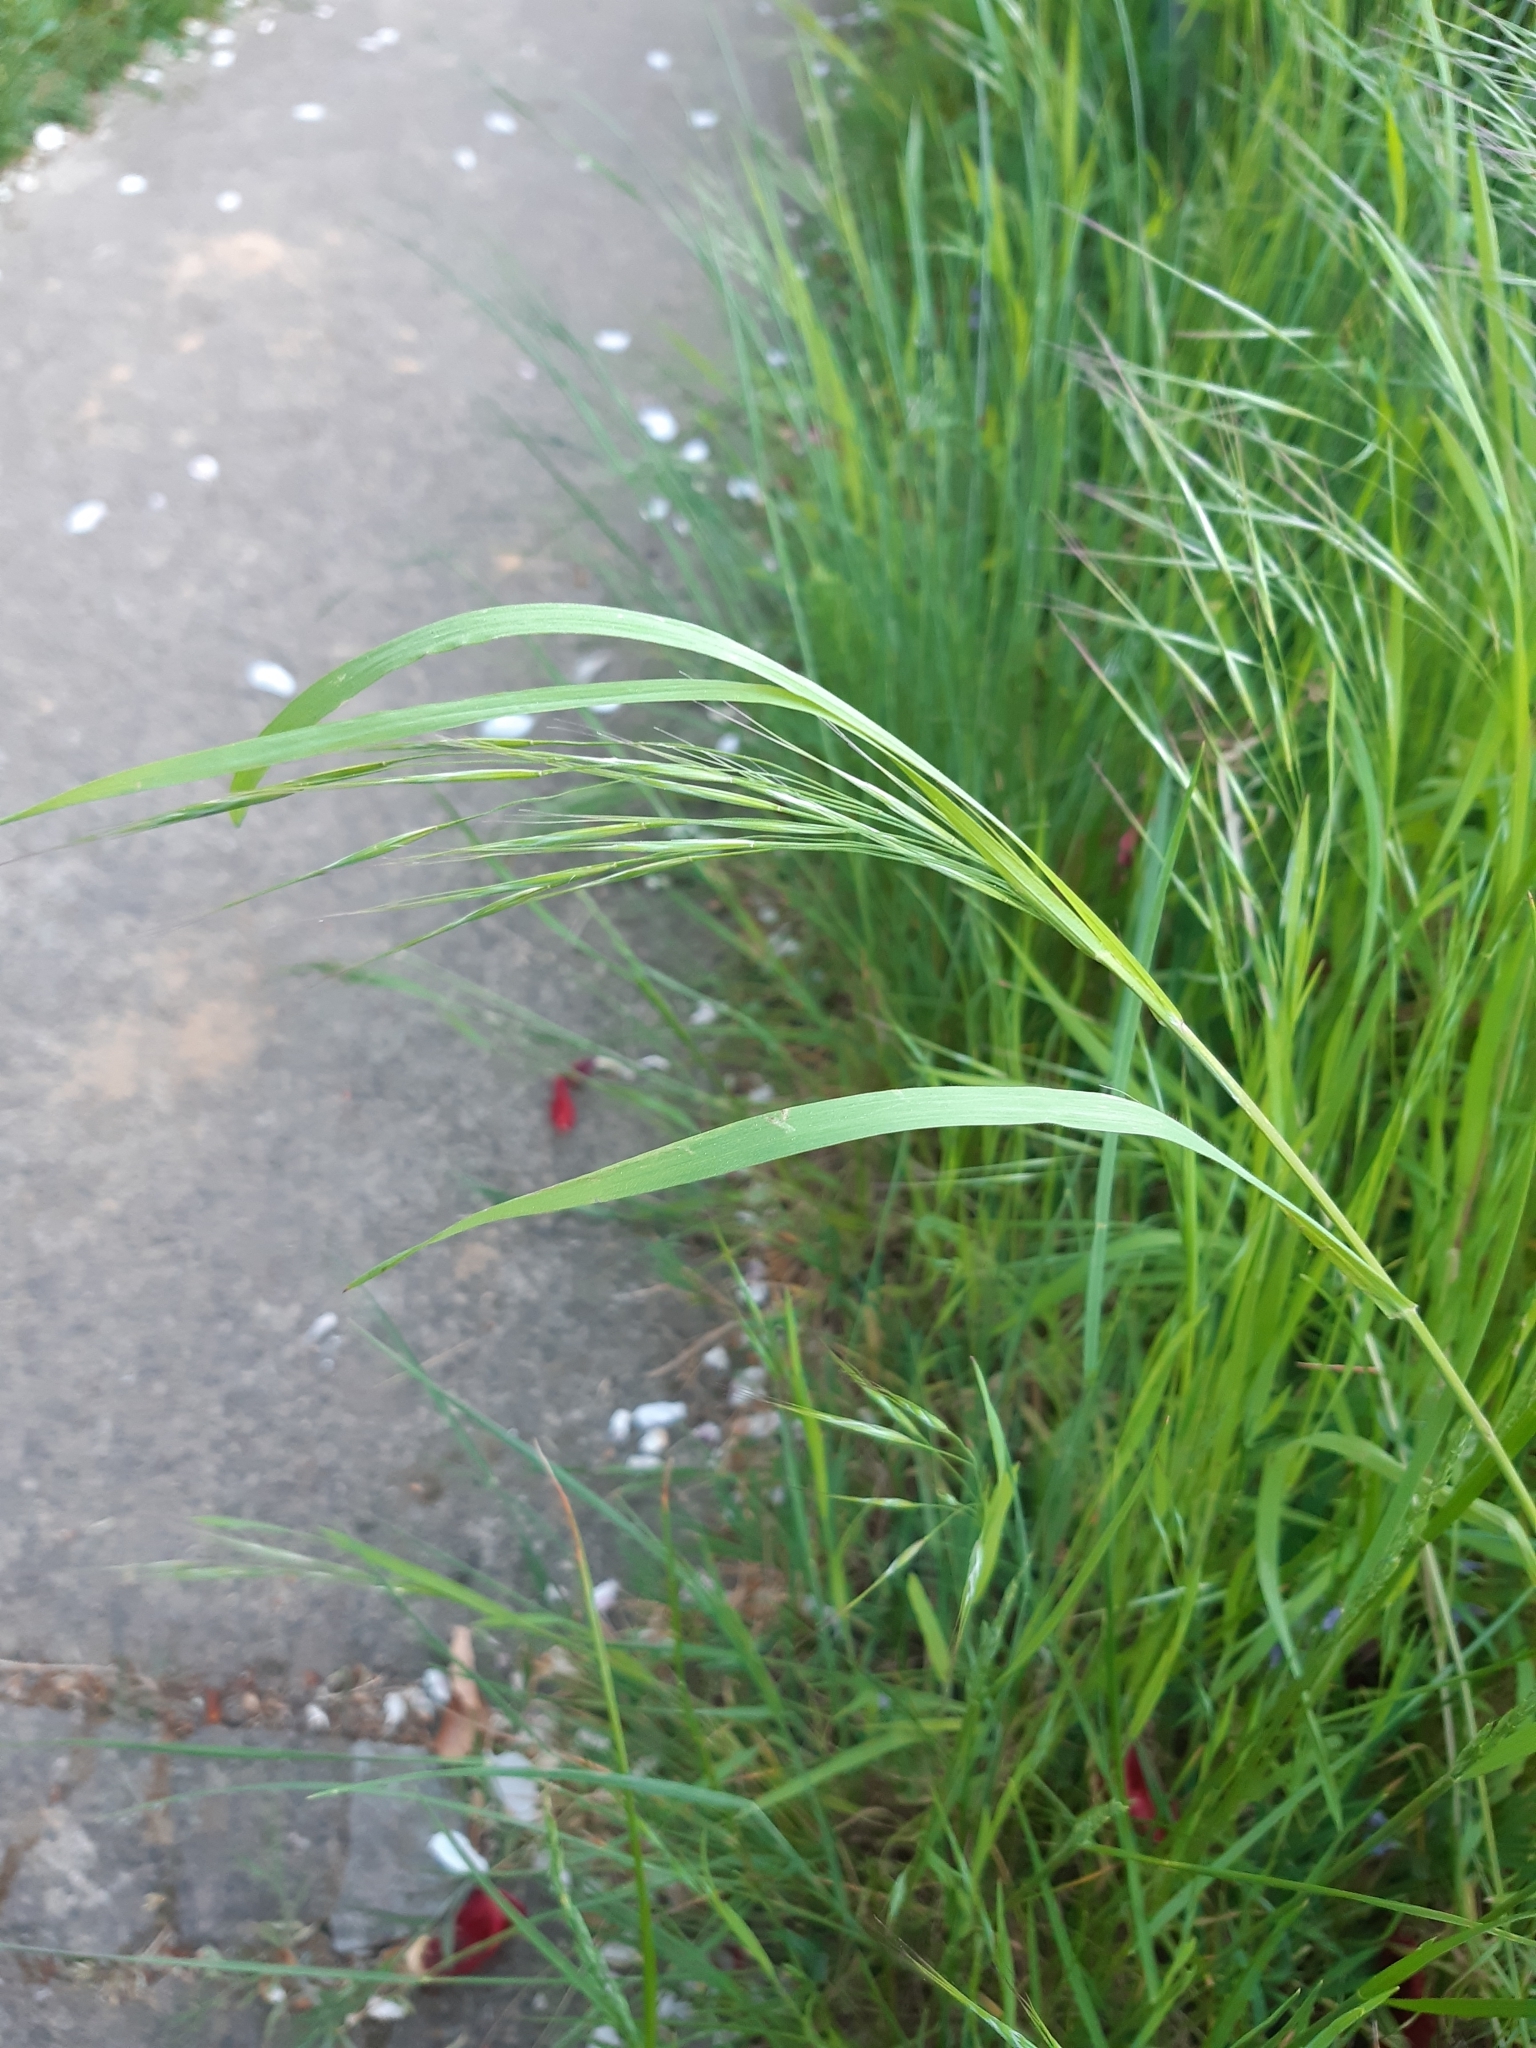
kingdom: Plantae
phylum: Tracheophyta
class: Liliopsida
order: Poales
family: Poaceae
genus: Bromus
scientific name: Bromus sterilis
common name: Poverty brome
